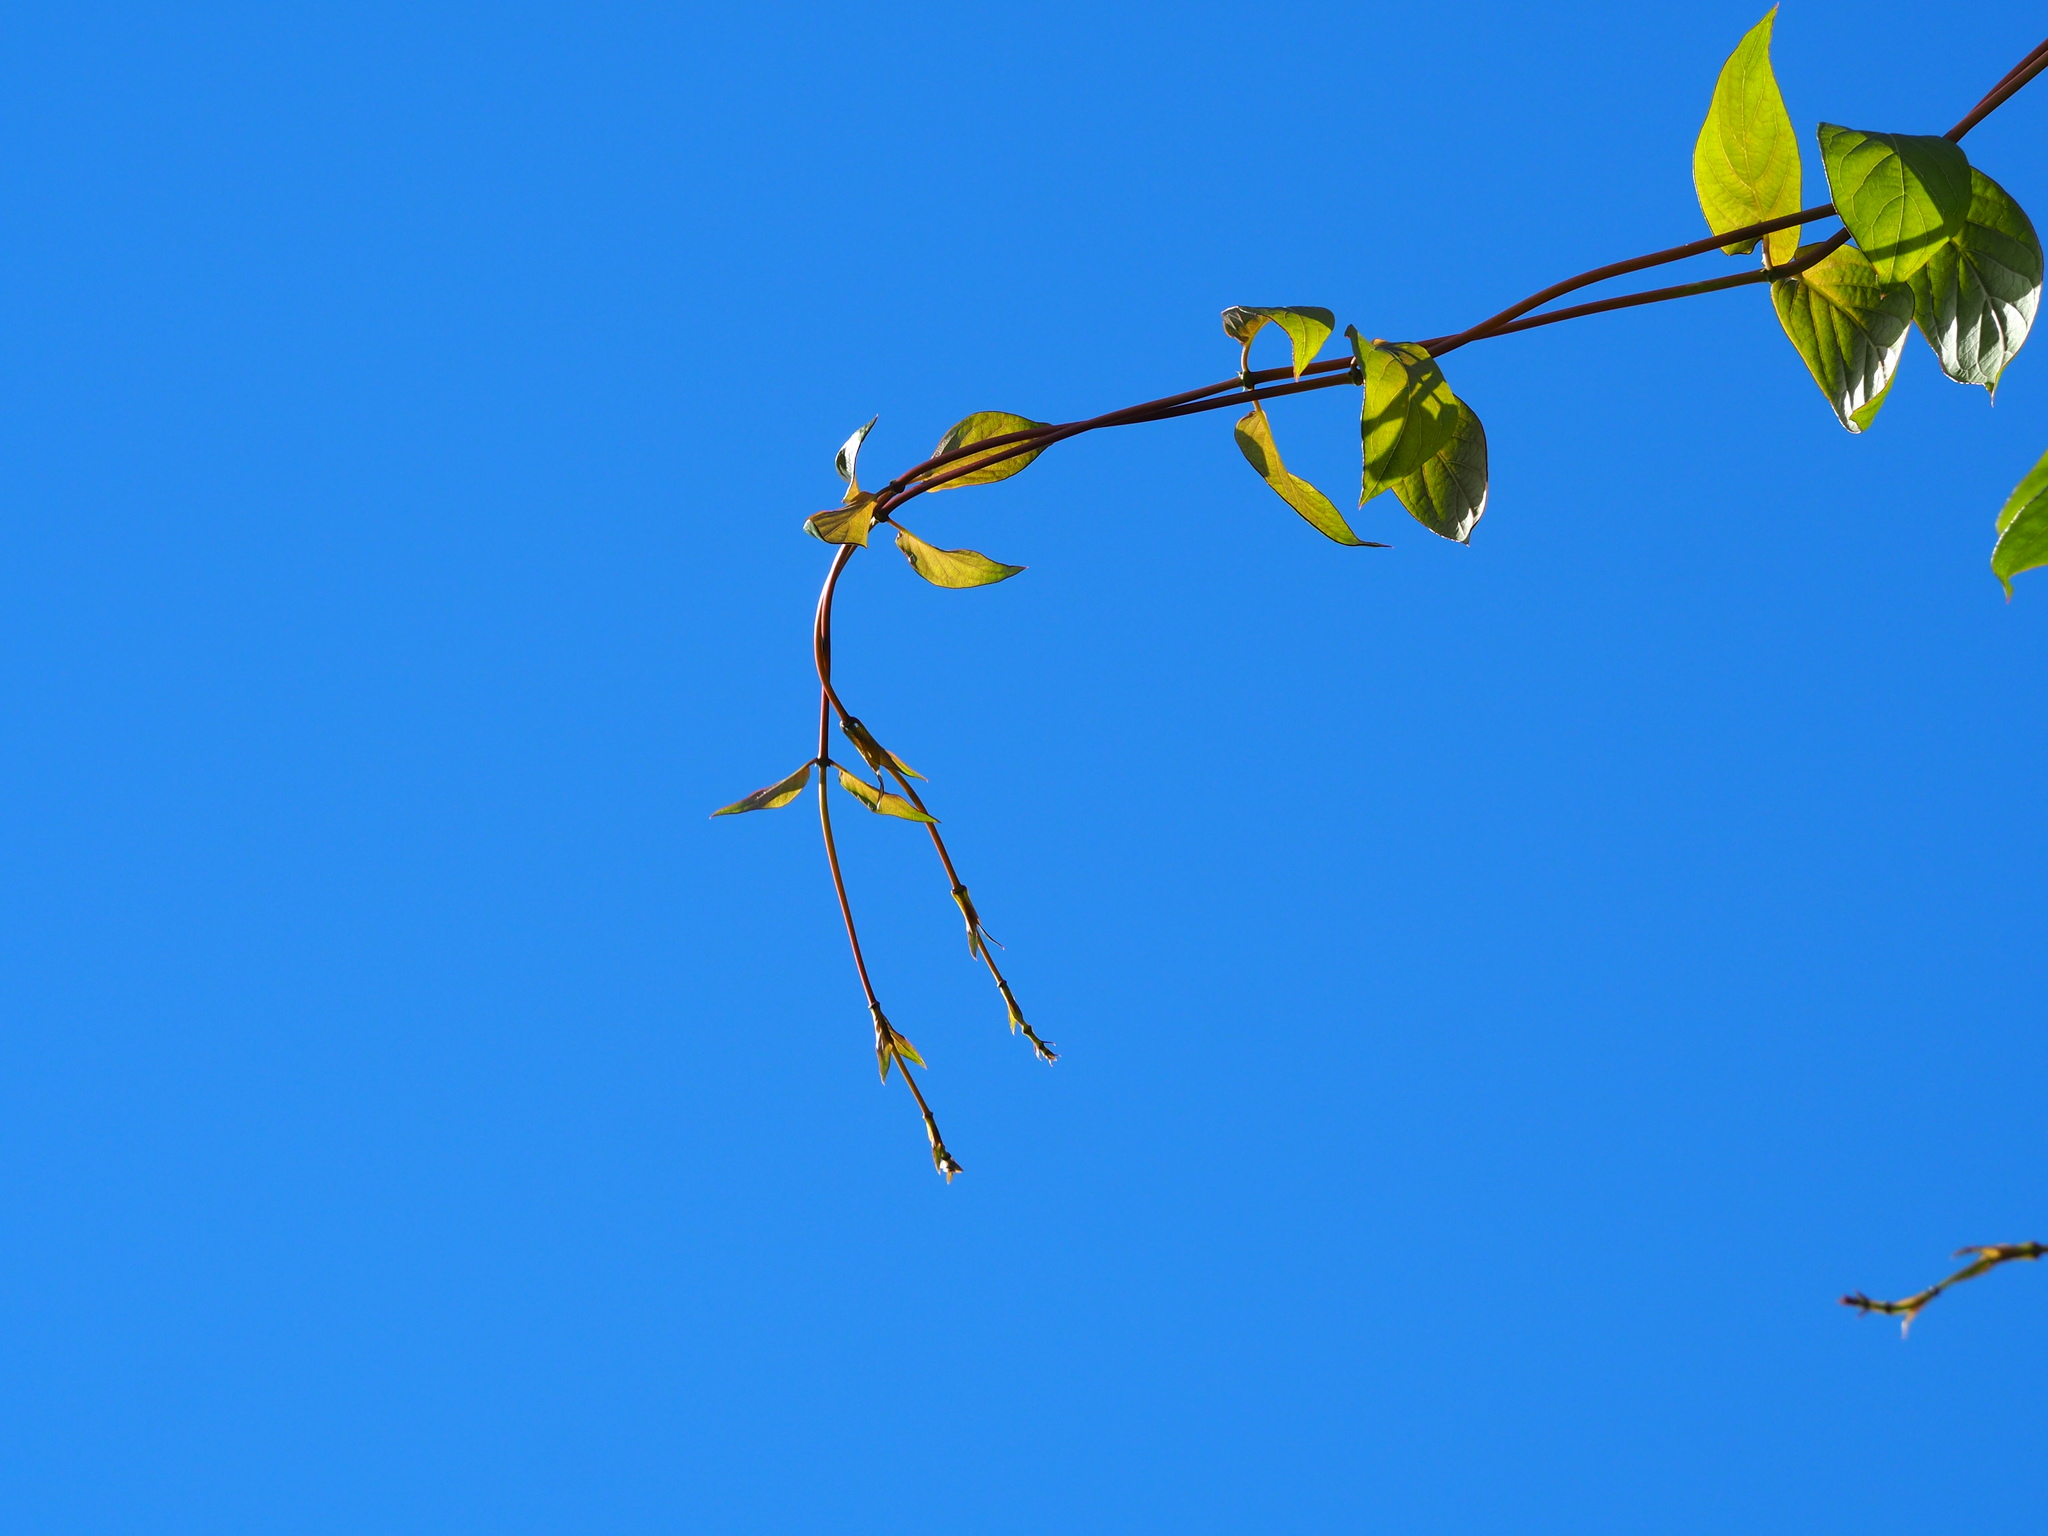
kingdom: Plantae
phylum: Tracheophyta
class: Magnoliopsida
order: Gentianales
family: Rubiaceae
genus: Paederia
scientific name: Paederia foetida
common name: Stinkvine
